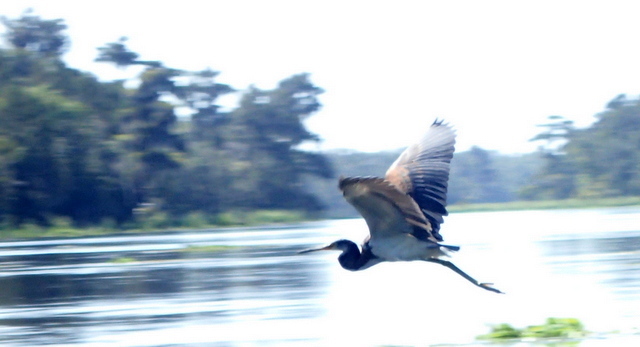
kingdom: Animalia
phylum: Chordata
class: Aves
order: Pelecaniformes
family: Ardeidae
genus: Egretta
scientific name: Egretta tricolor
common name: Tricolored heron
